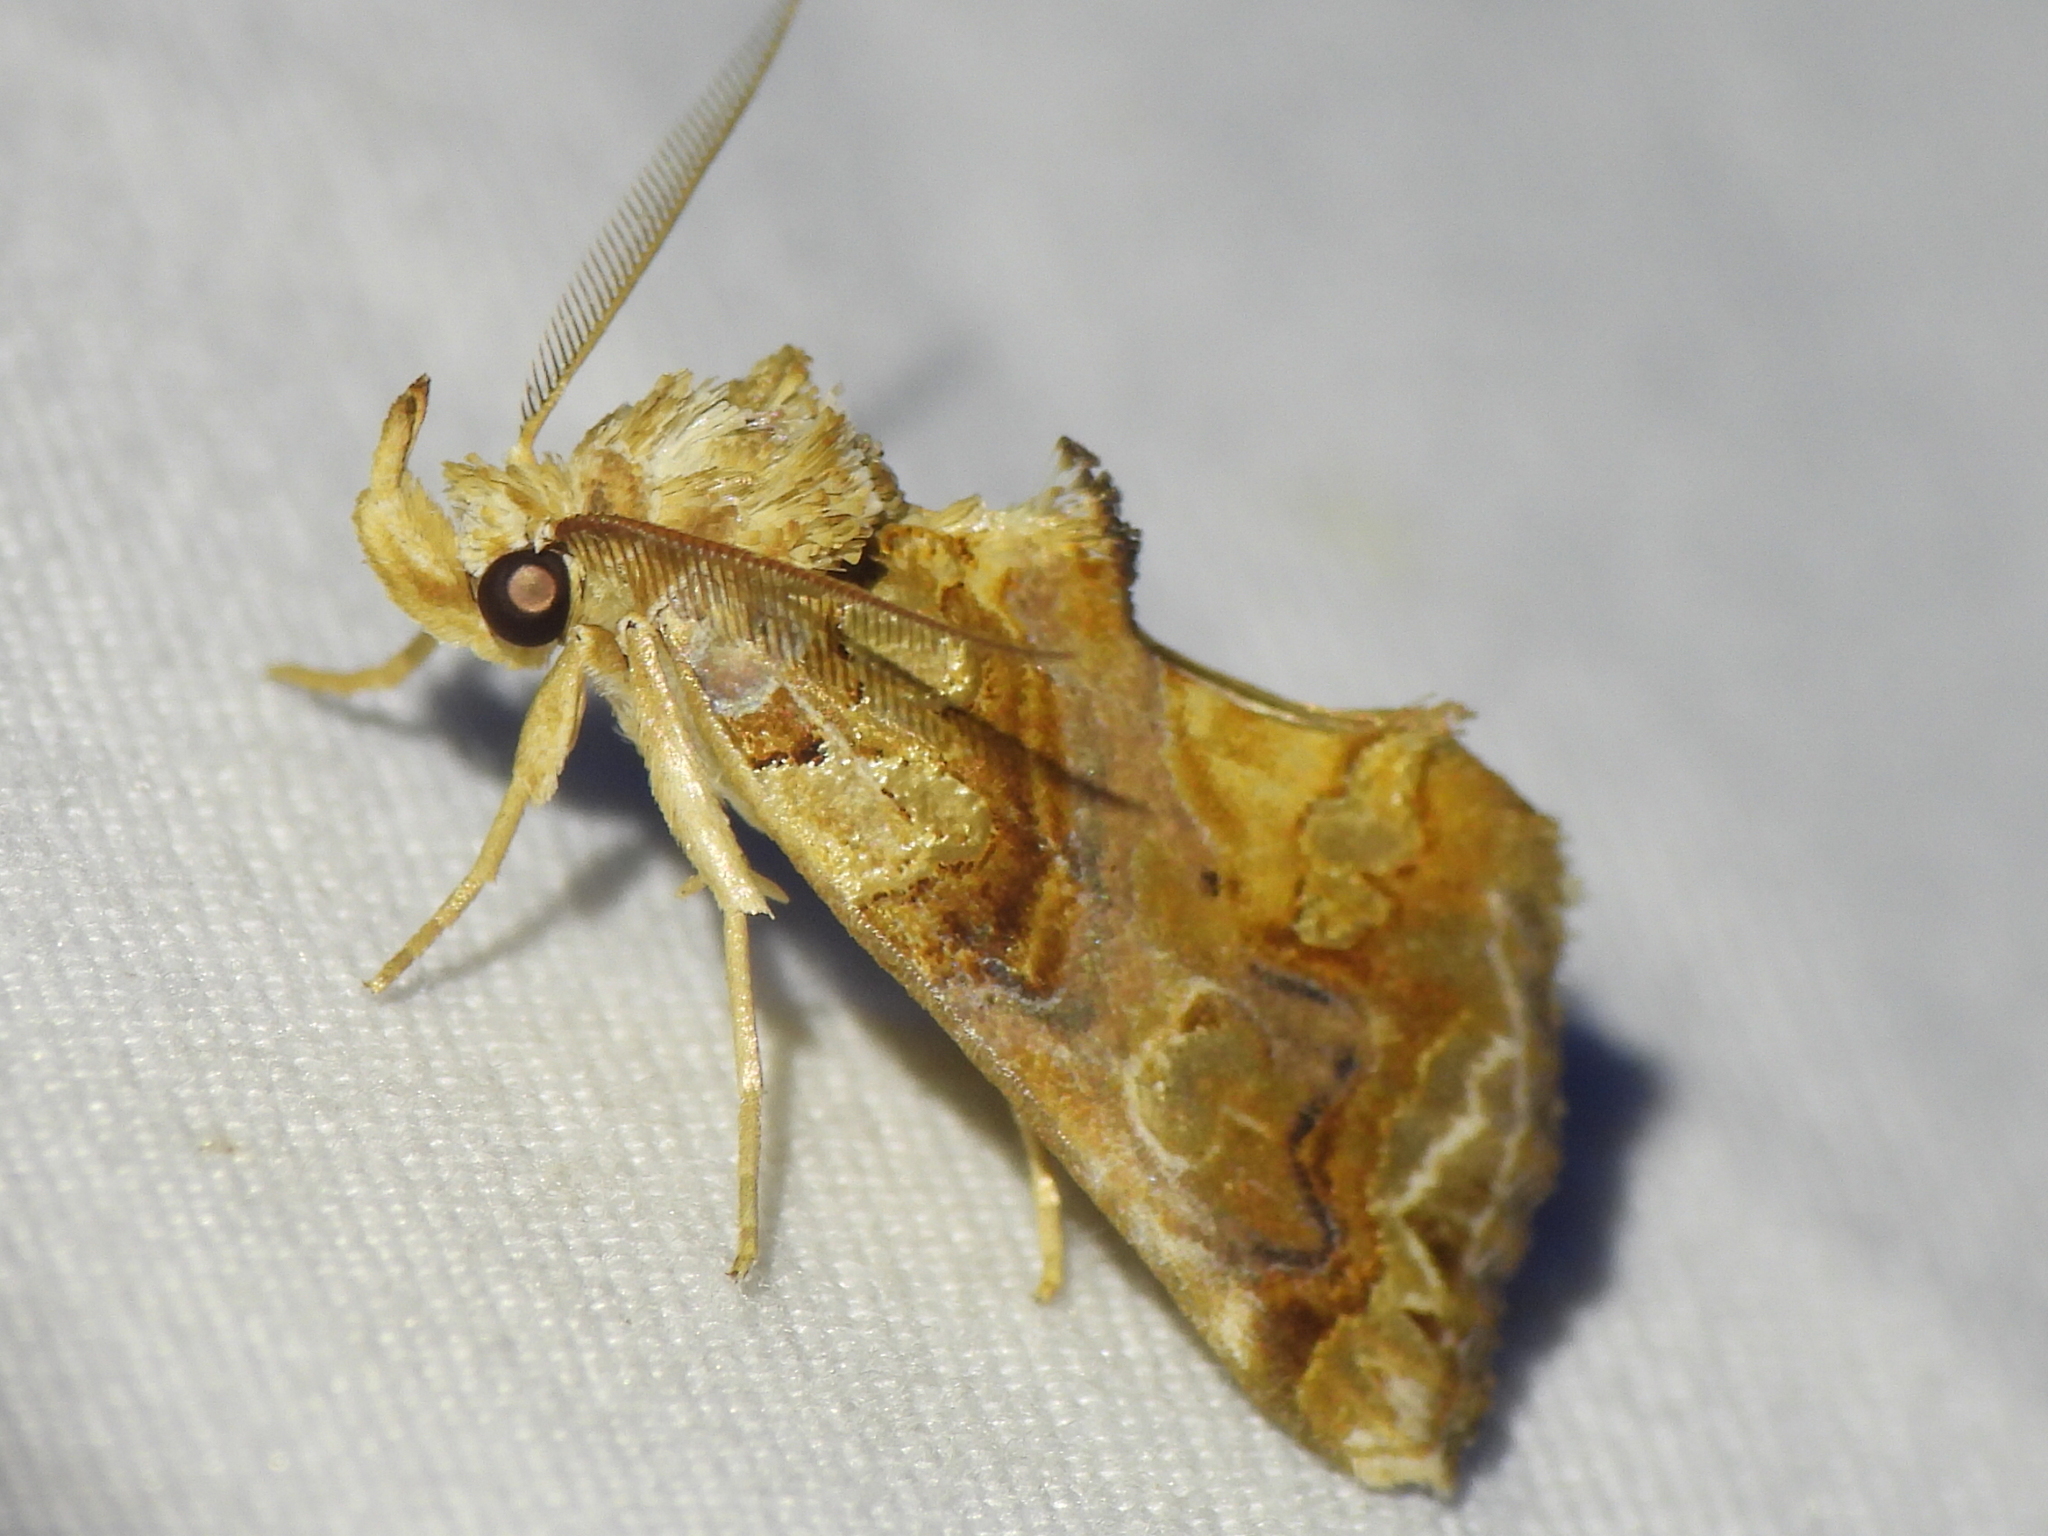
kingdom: Animalia
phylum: Arthropoda
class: Insecta
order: Lepidoptera
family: Erebidae
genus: Plusiodonta
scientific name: Plusiodonta compressipalpis
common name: Moonseed moth
